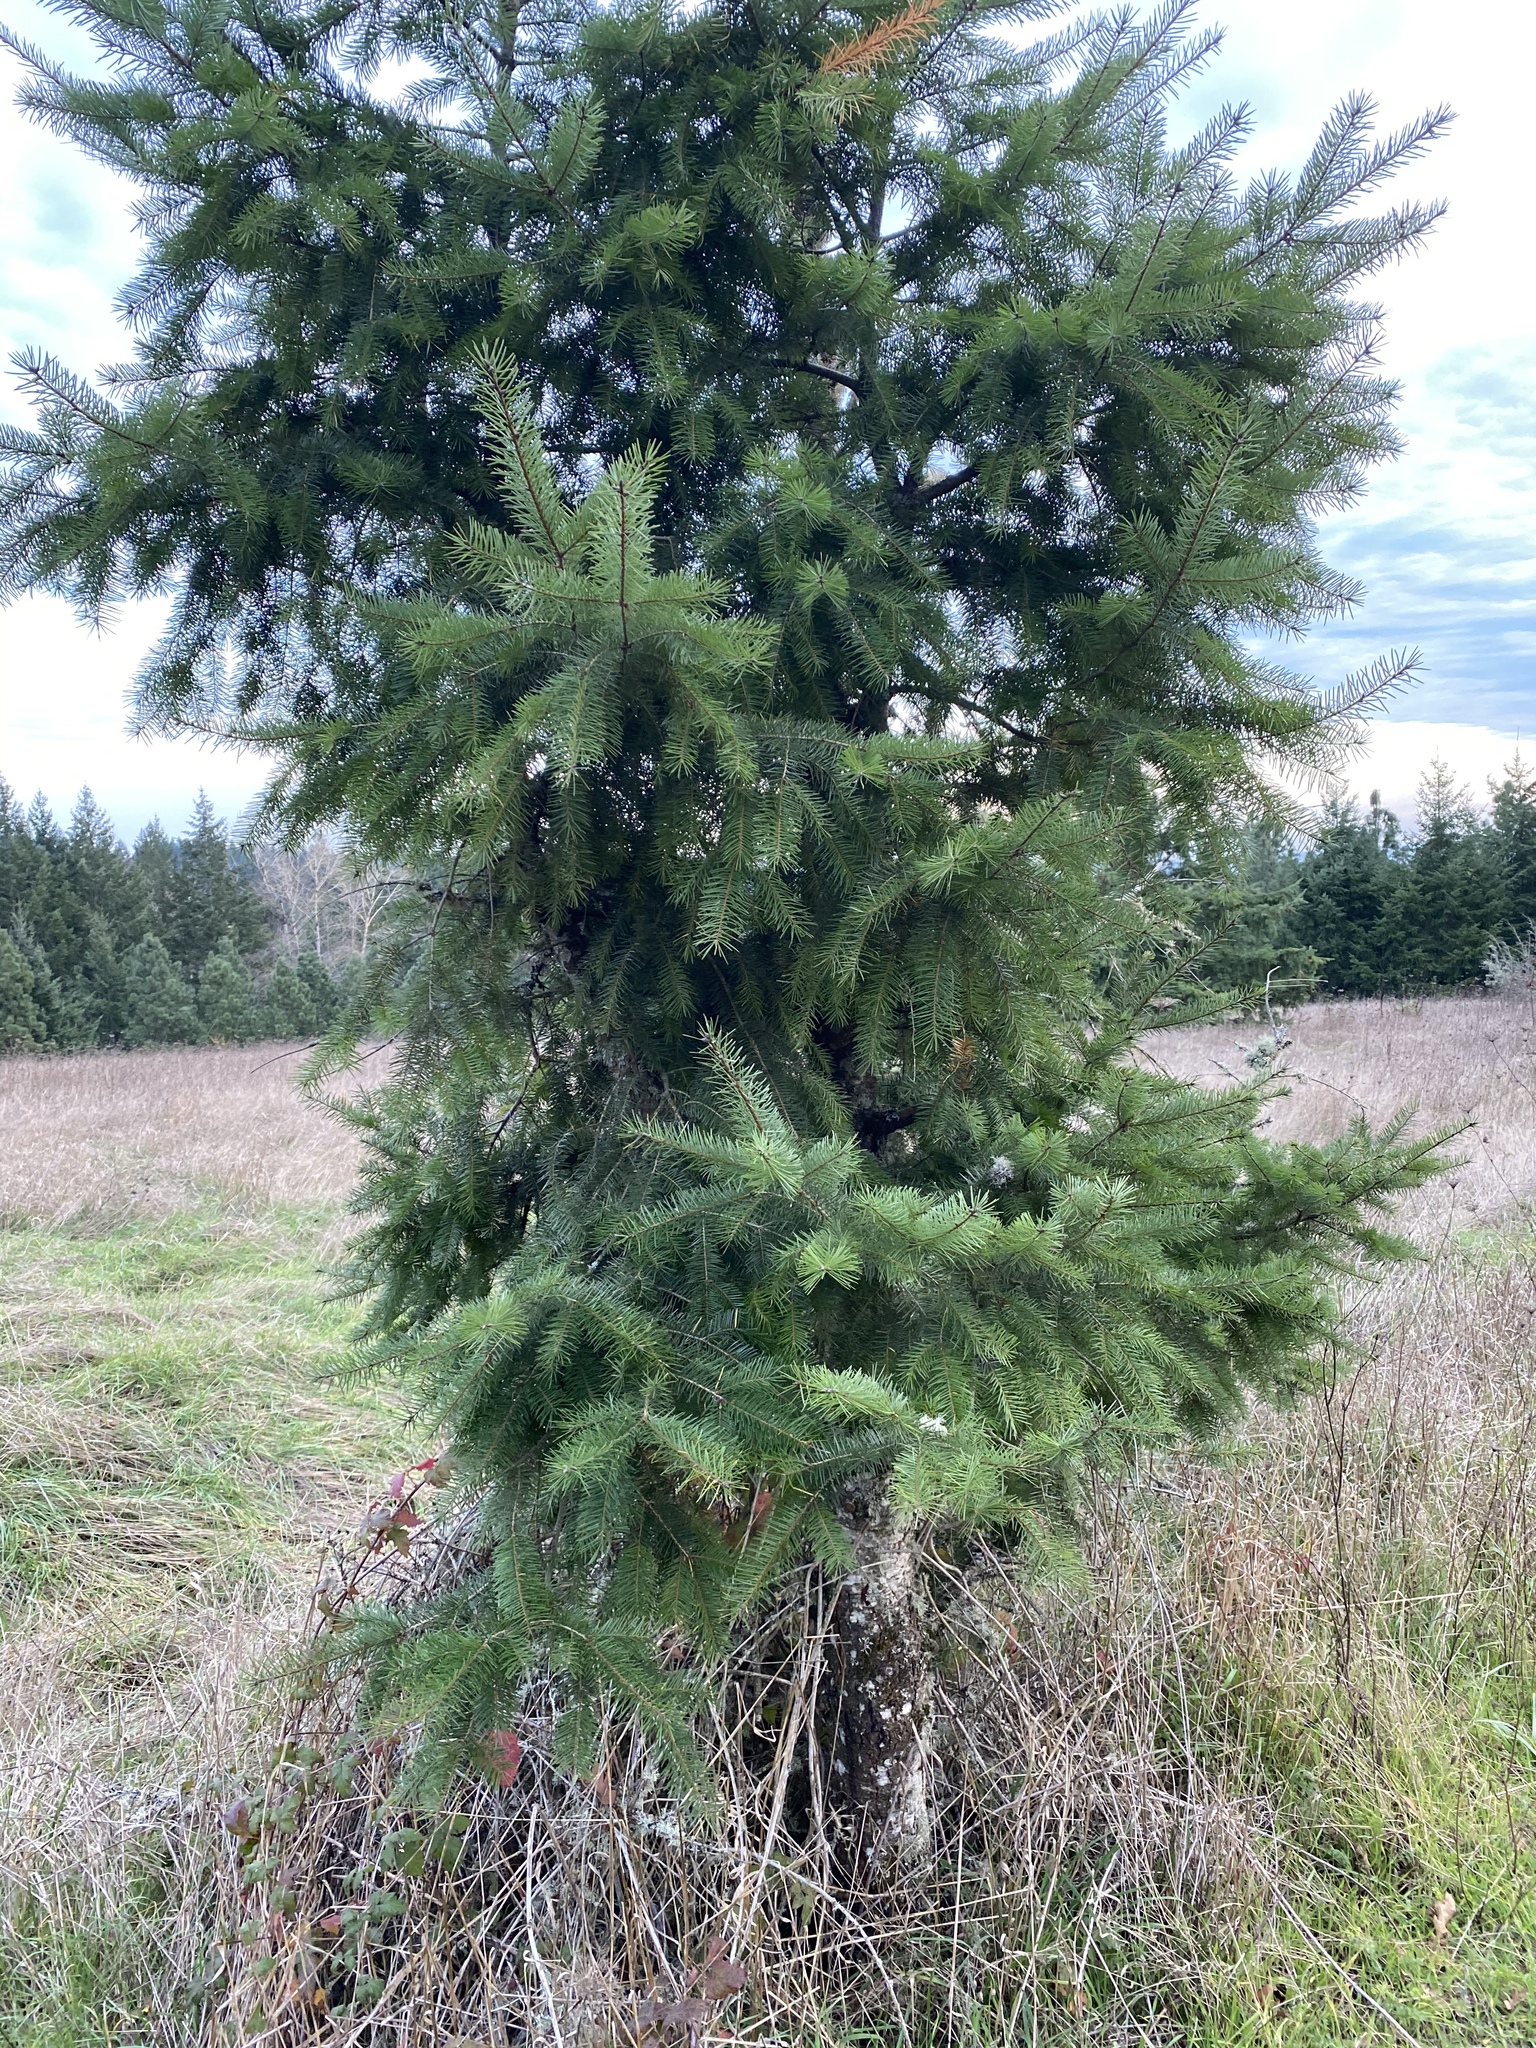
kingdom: Plantae
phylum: Tracheophyta
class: Pinopsida
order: Pinales
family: Pinaceae
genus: Pseudotsuga
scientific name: Pseudotsuga menziesii
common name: Douglas fir
